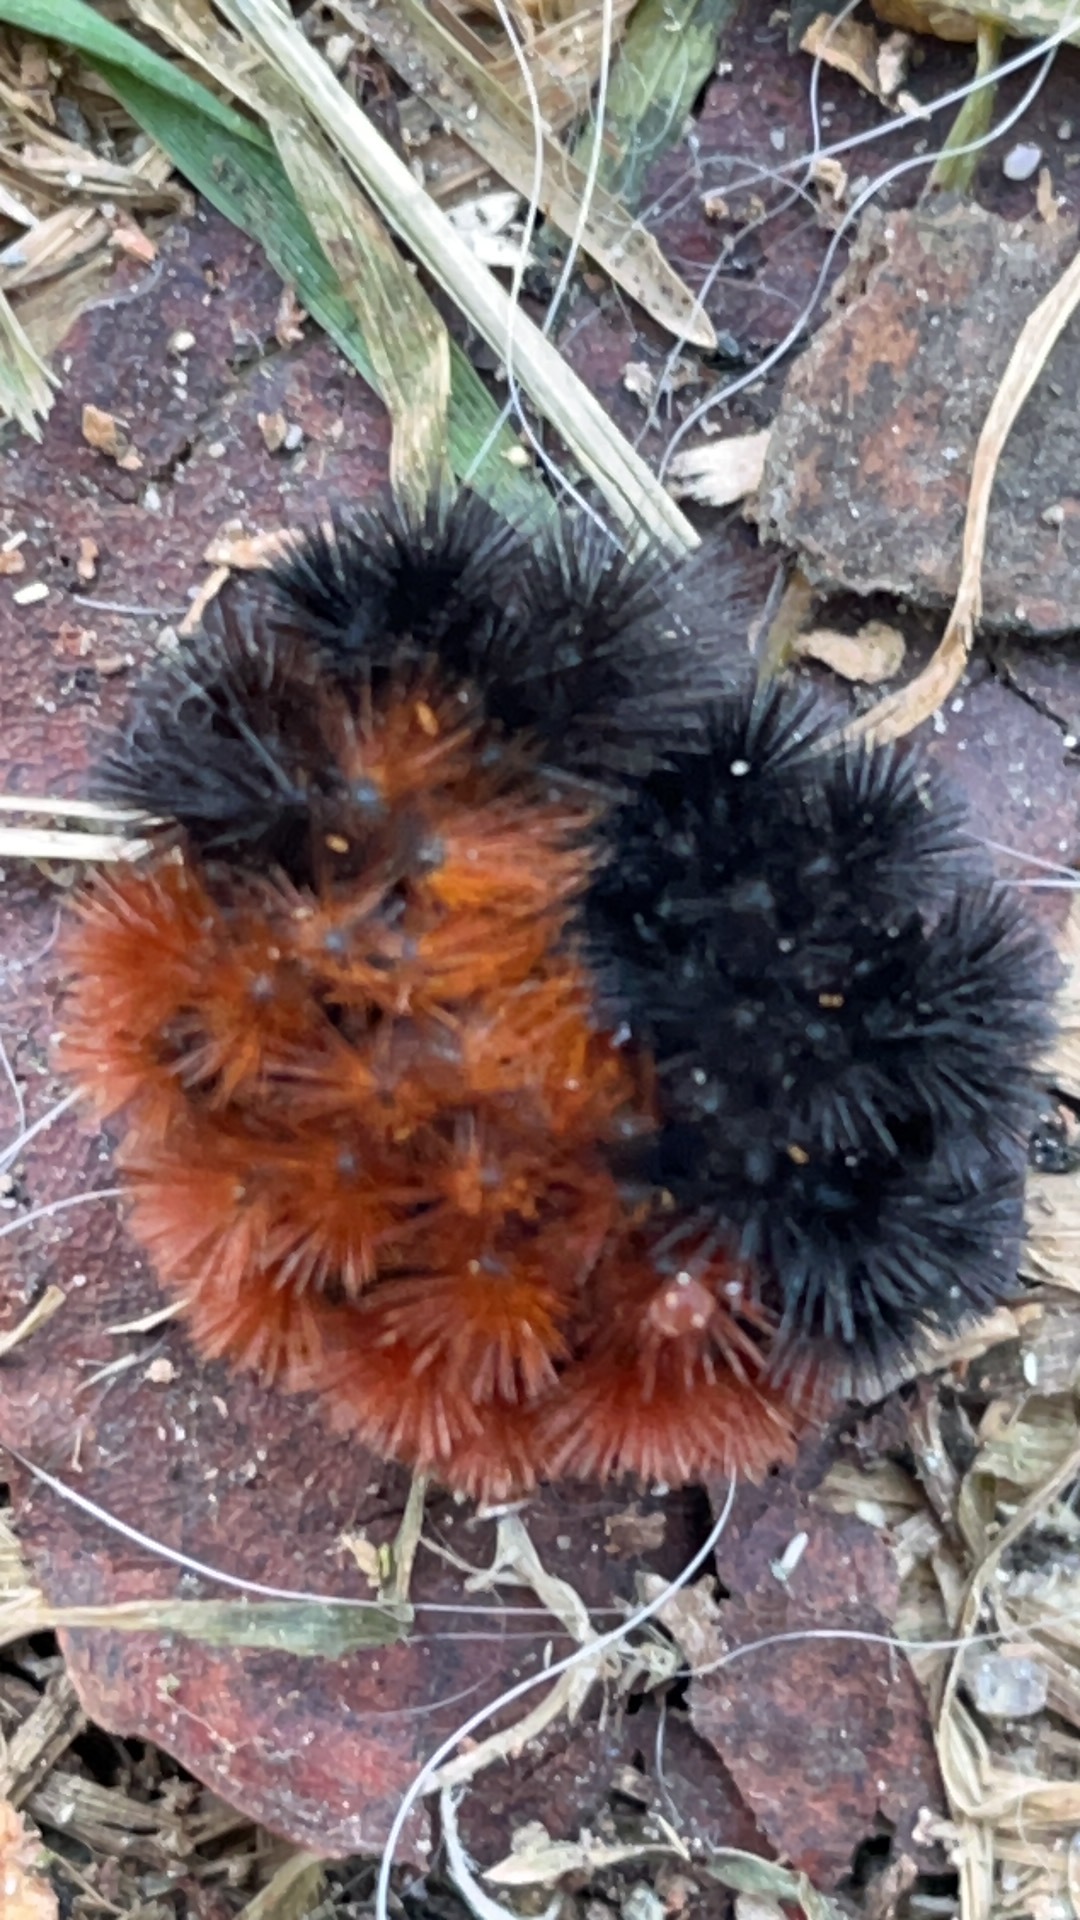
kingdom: Animalia
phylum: Arthropoda
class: Insecta
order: Lepidoptera
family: Erebidae
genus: Pyrrharctia
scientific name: Pyrrharctia isabella
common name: Isabella tiger moth
